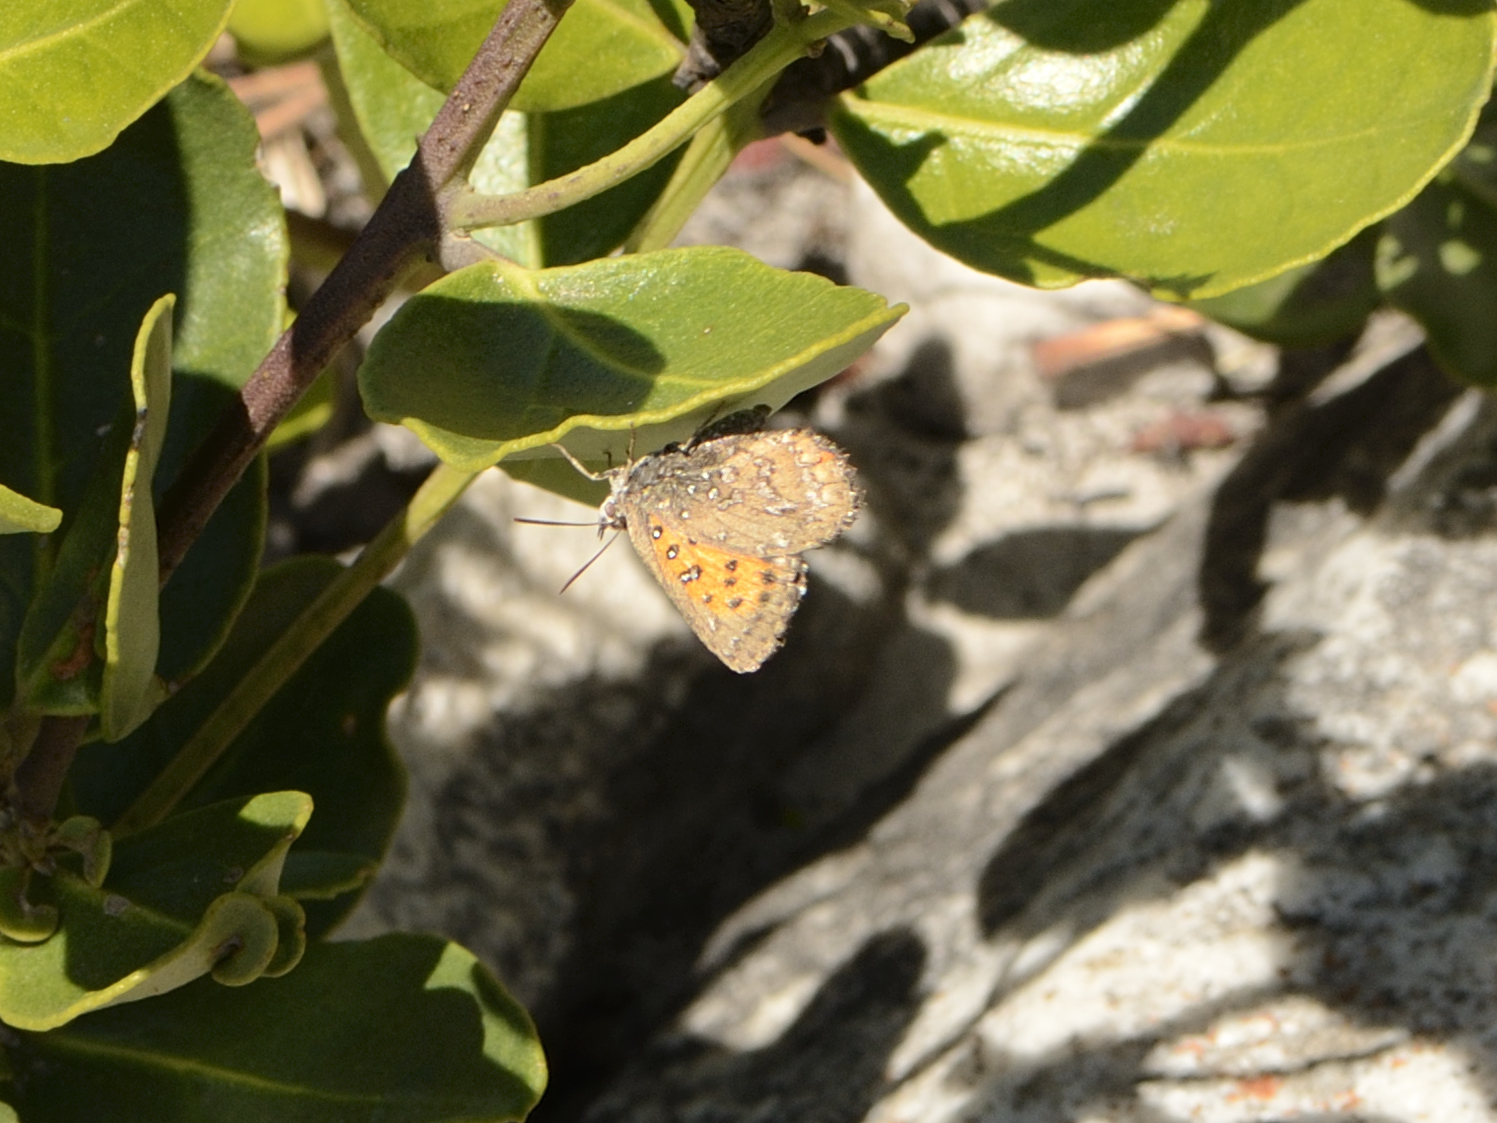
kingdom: Animalia
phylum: Arthropoda
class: Insecta
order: Lepidoptera
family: Lycaenidae
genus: Aloeides
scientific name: Aloeides thyra
